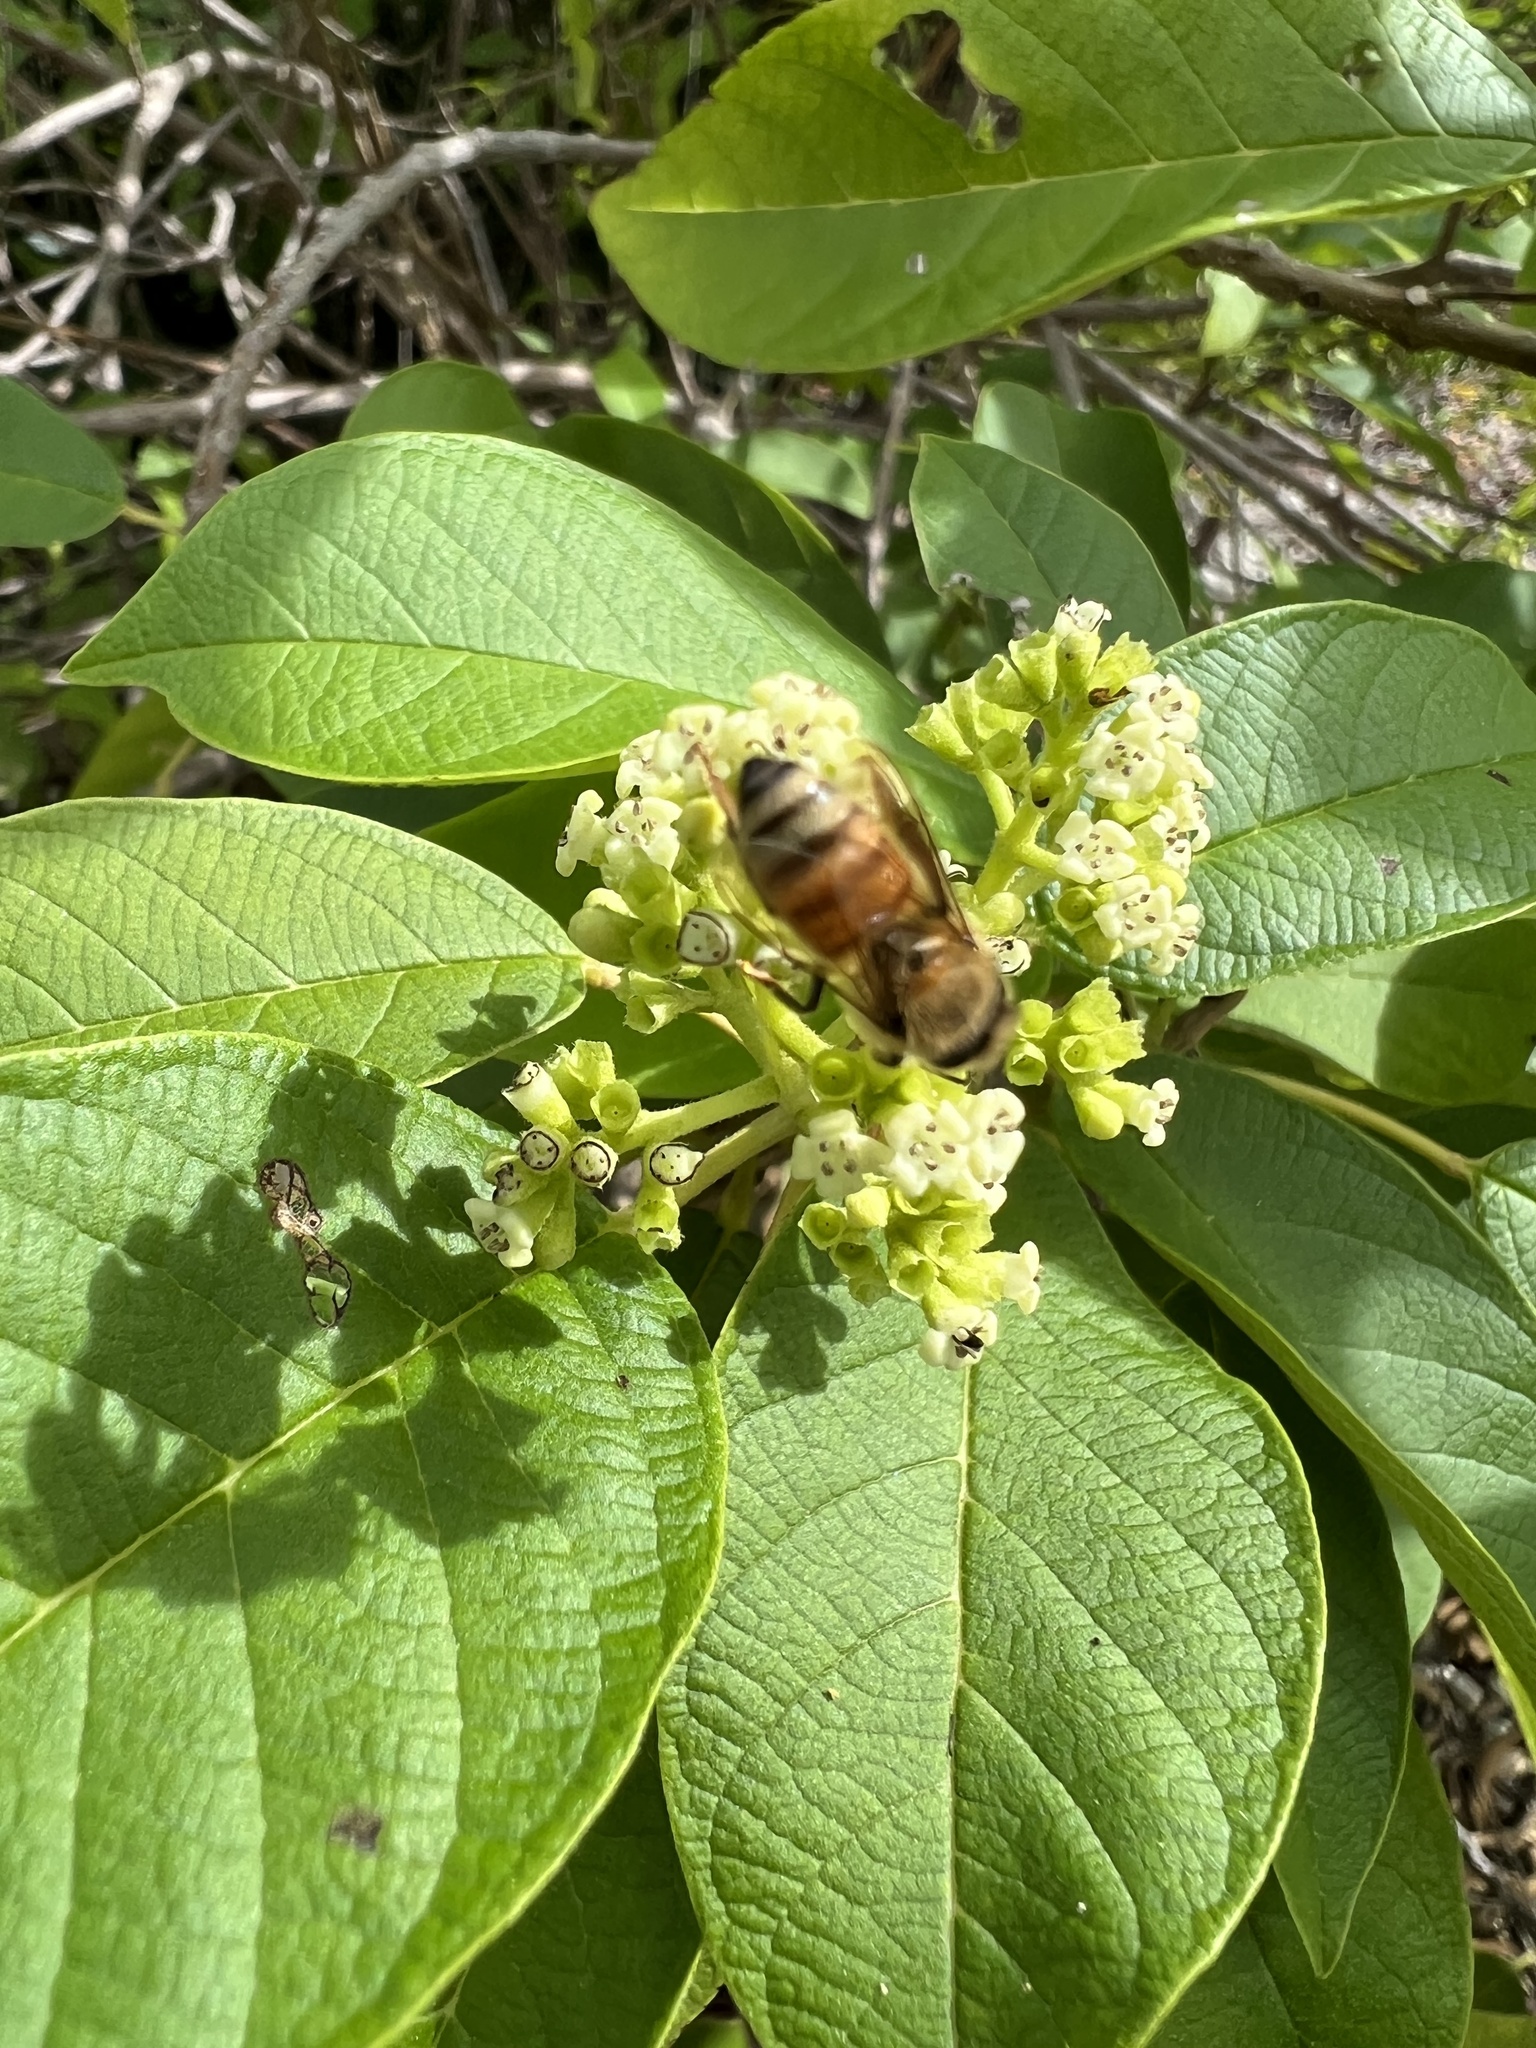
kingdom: Animalia
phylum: Arthropoda
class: Insecta
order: Hymenoptera
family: Apidae
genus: Apis
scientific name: Apis mellifera
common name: Honey bee
